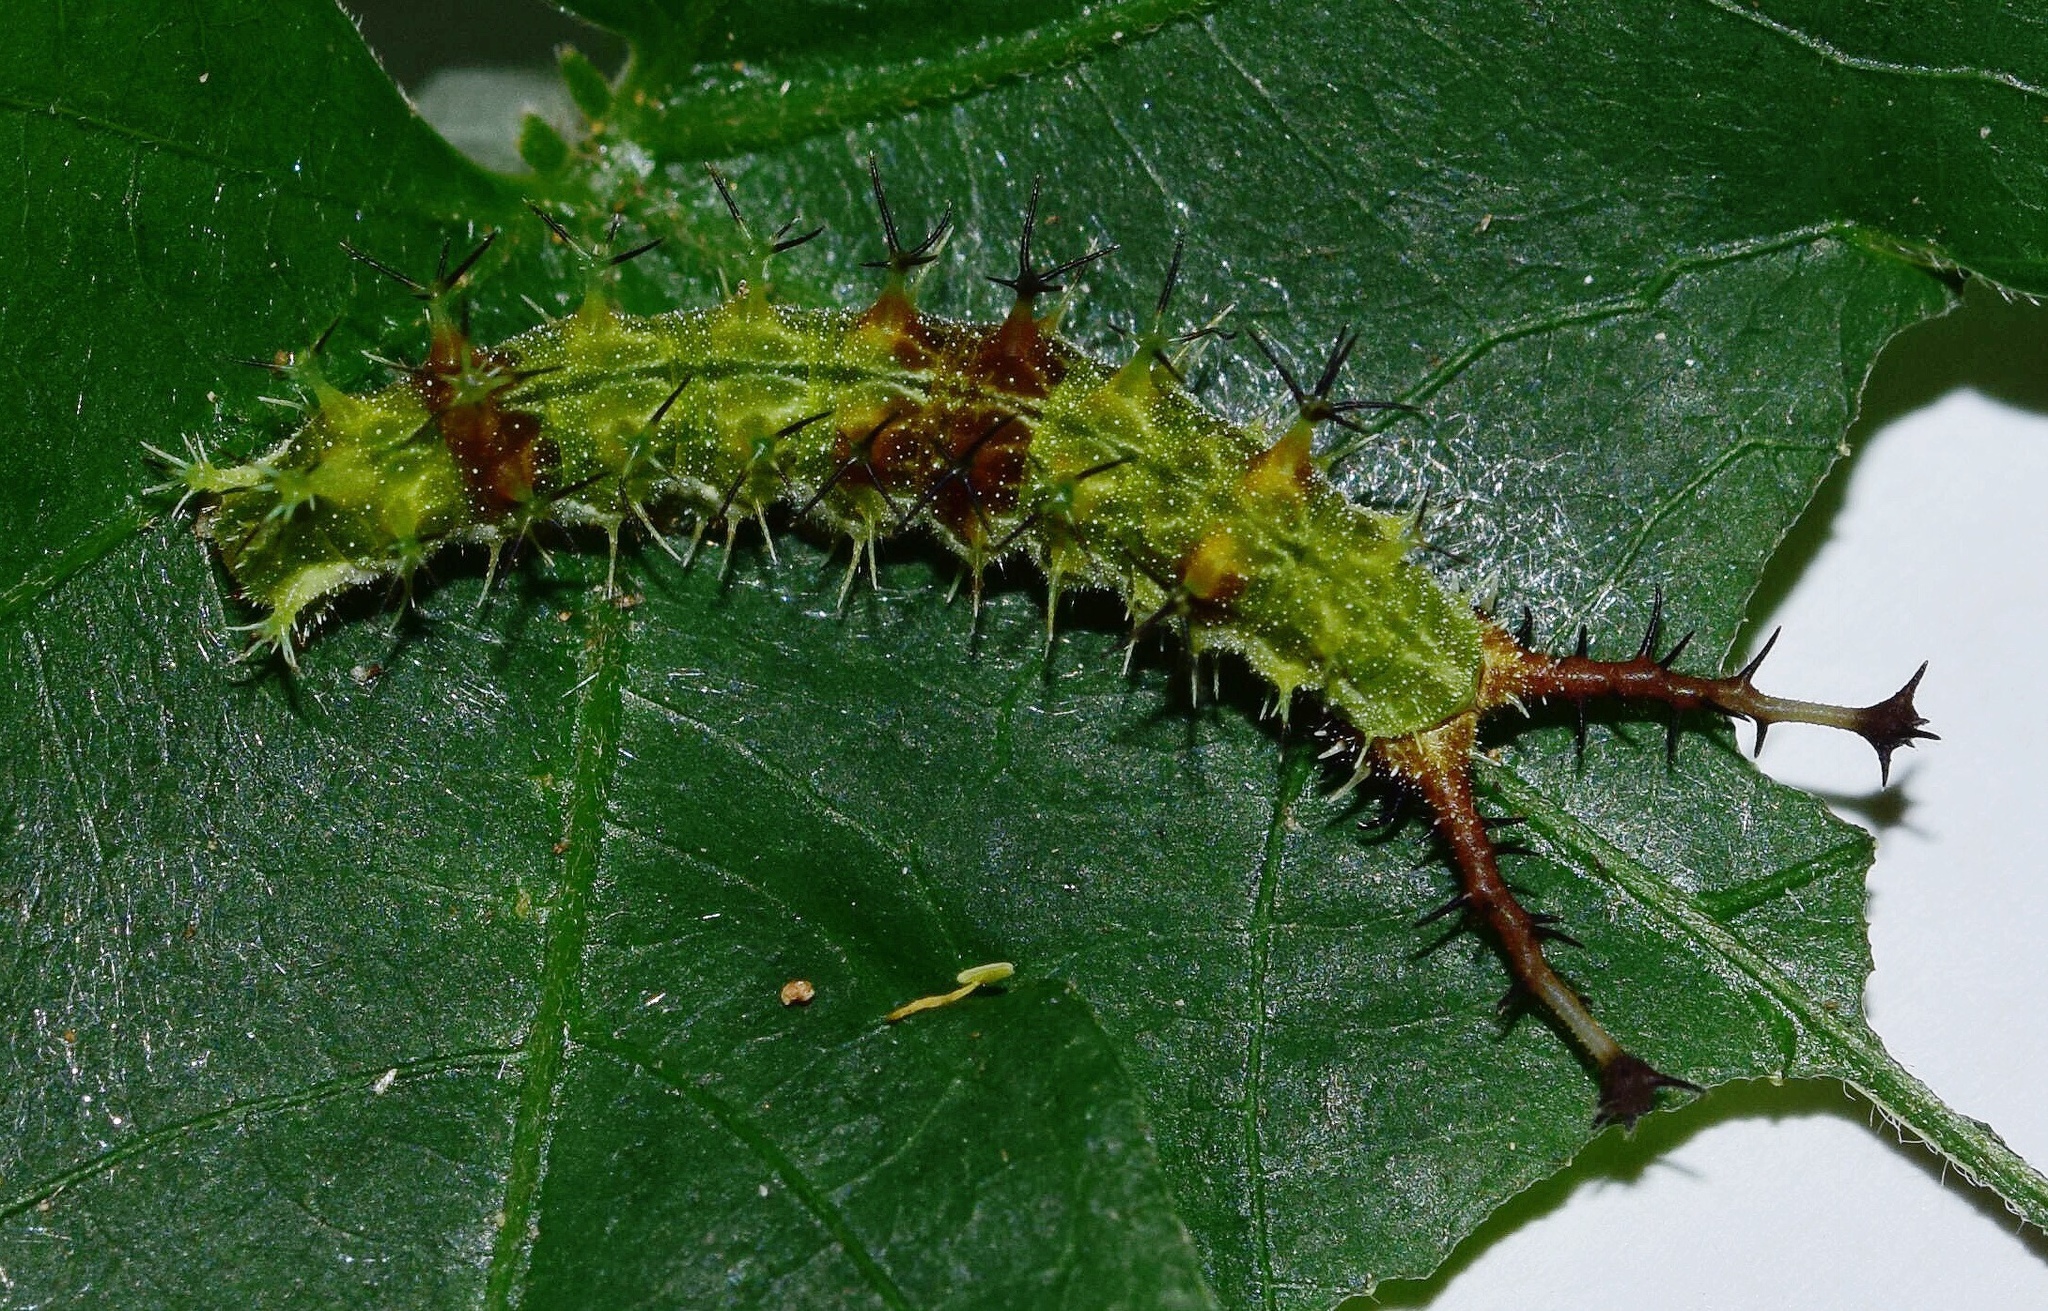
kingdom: Animalia
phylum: Arthropoda
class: Insecta
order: Lepidoptera
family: Nymphalidae
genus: Eurytela
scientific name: Eurytela dryope
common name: Golden piper
